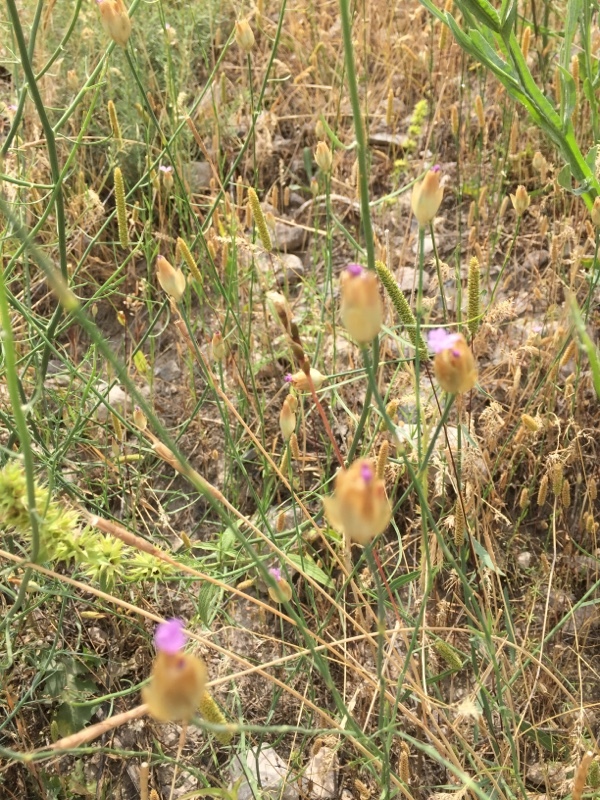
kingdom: Plantae
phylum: Tracheophyta
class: Magnoliopsida
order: Caryophyllales
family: Caryophyllaceae
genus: Petrorhagia
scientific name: Petrorhagia prolifera
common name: Proliferous pink
